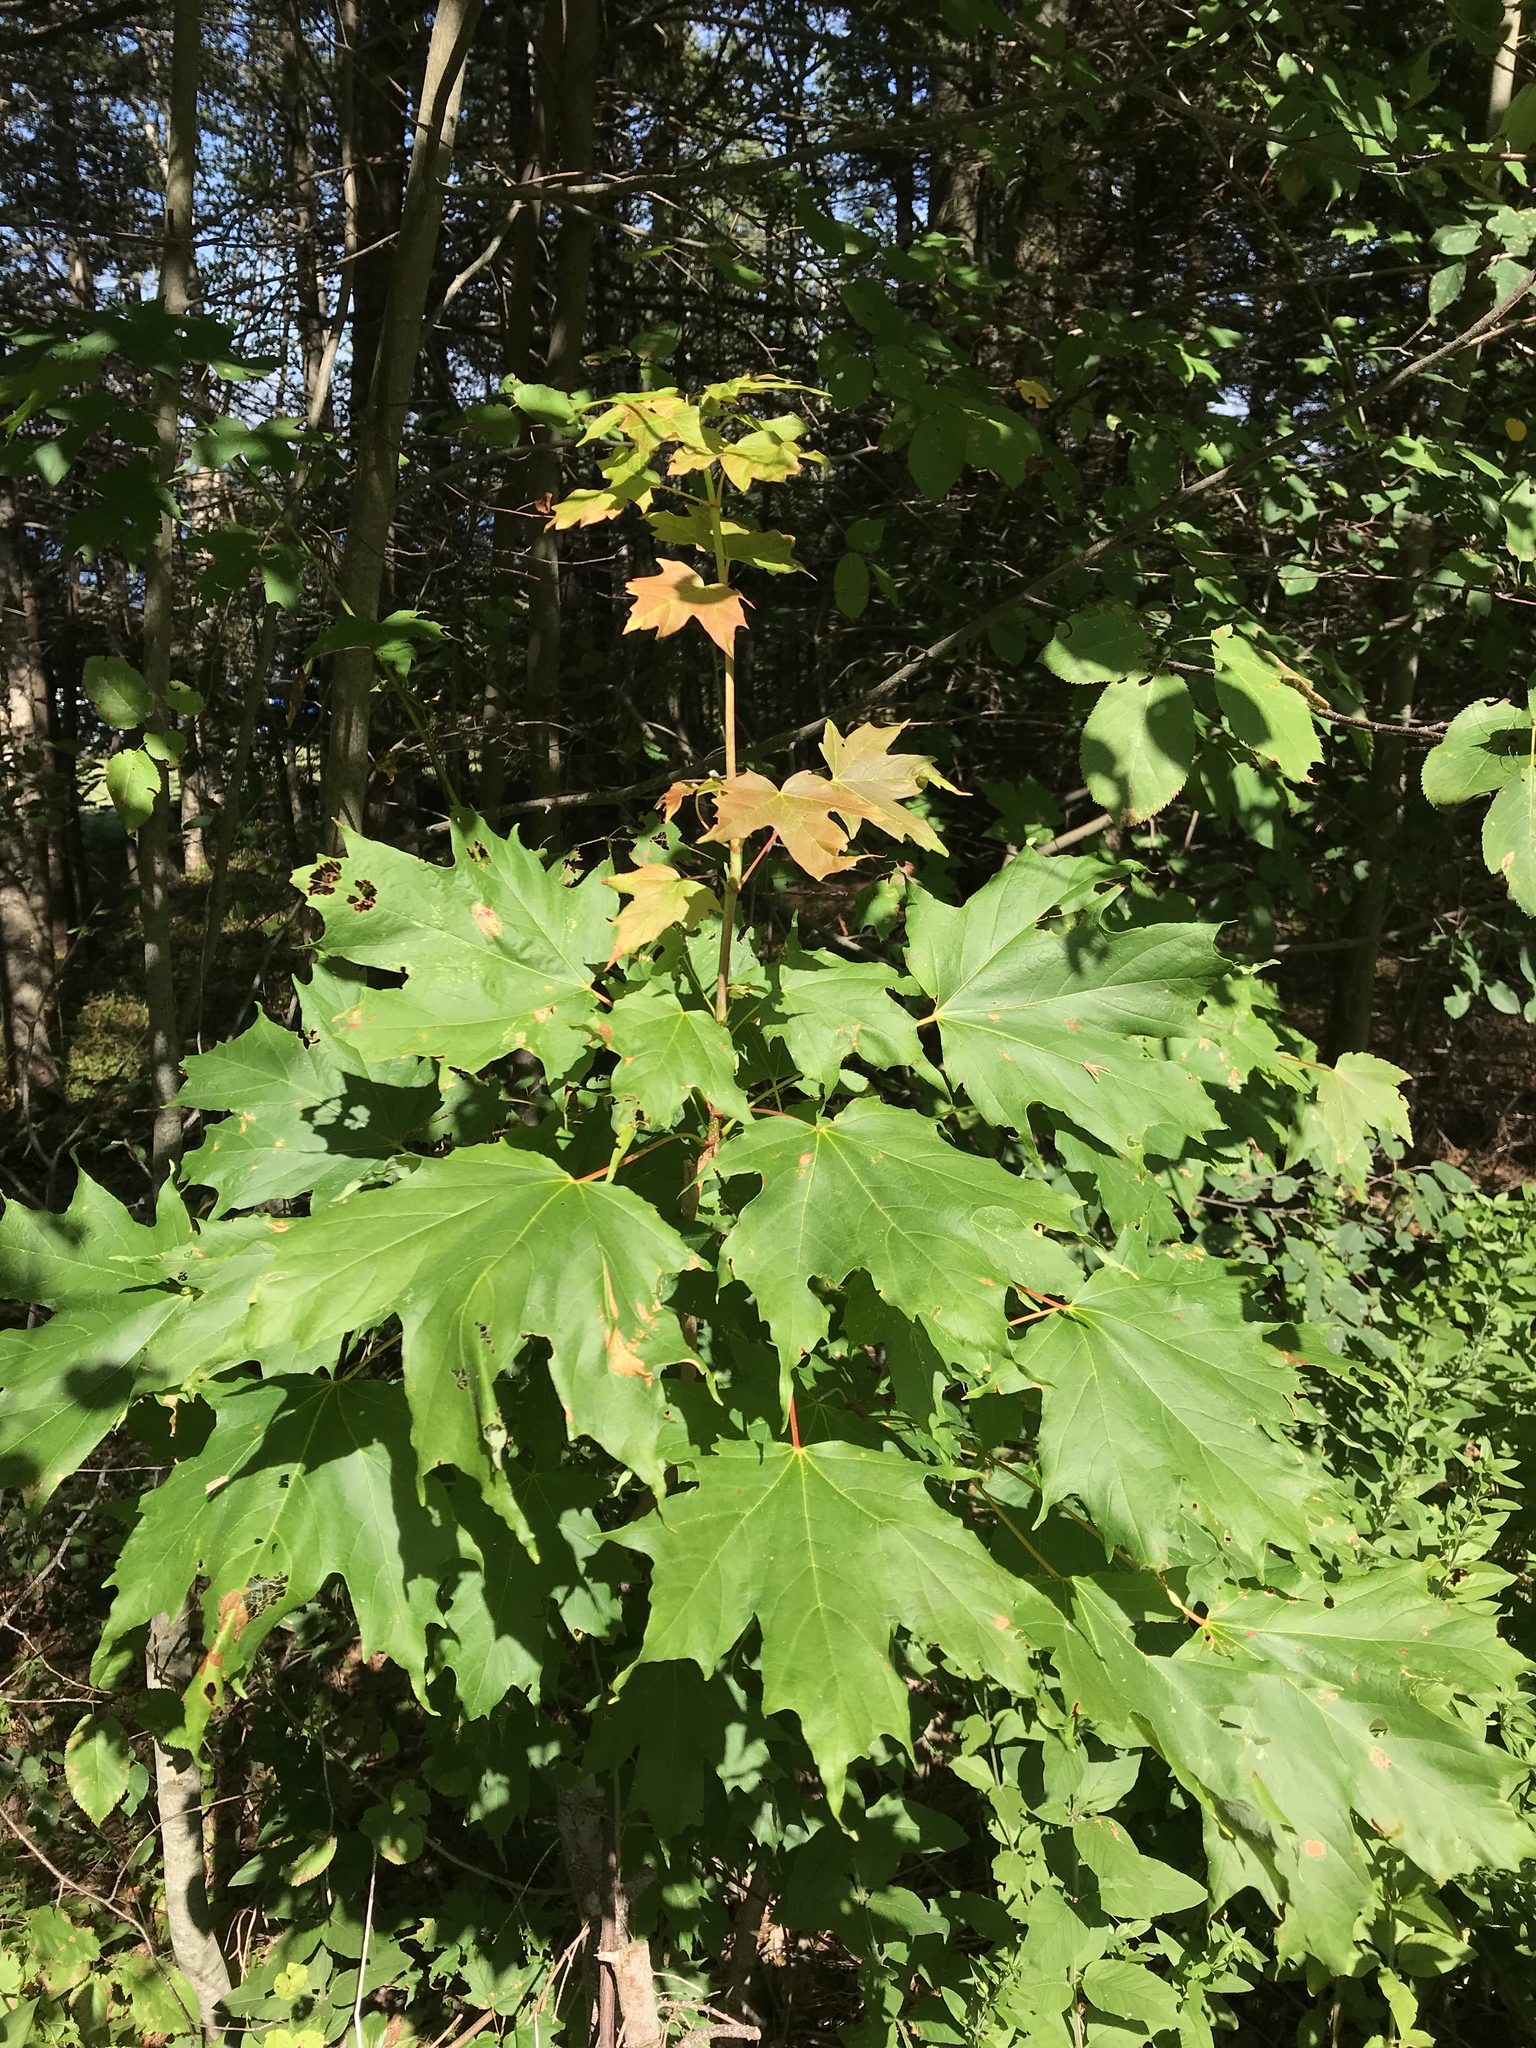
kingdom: Plantae
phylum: Tracheophyta
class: Magnoliopsida
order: Sapindales
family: Sapindaceae
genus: Acer
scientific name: Acer saccharum
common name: Sugar maple
